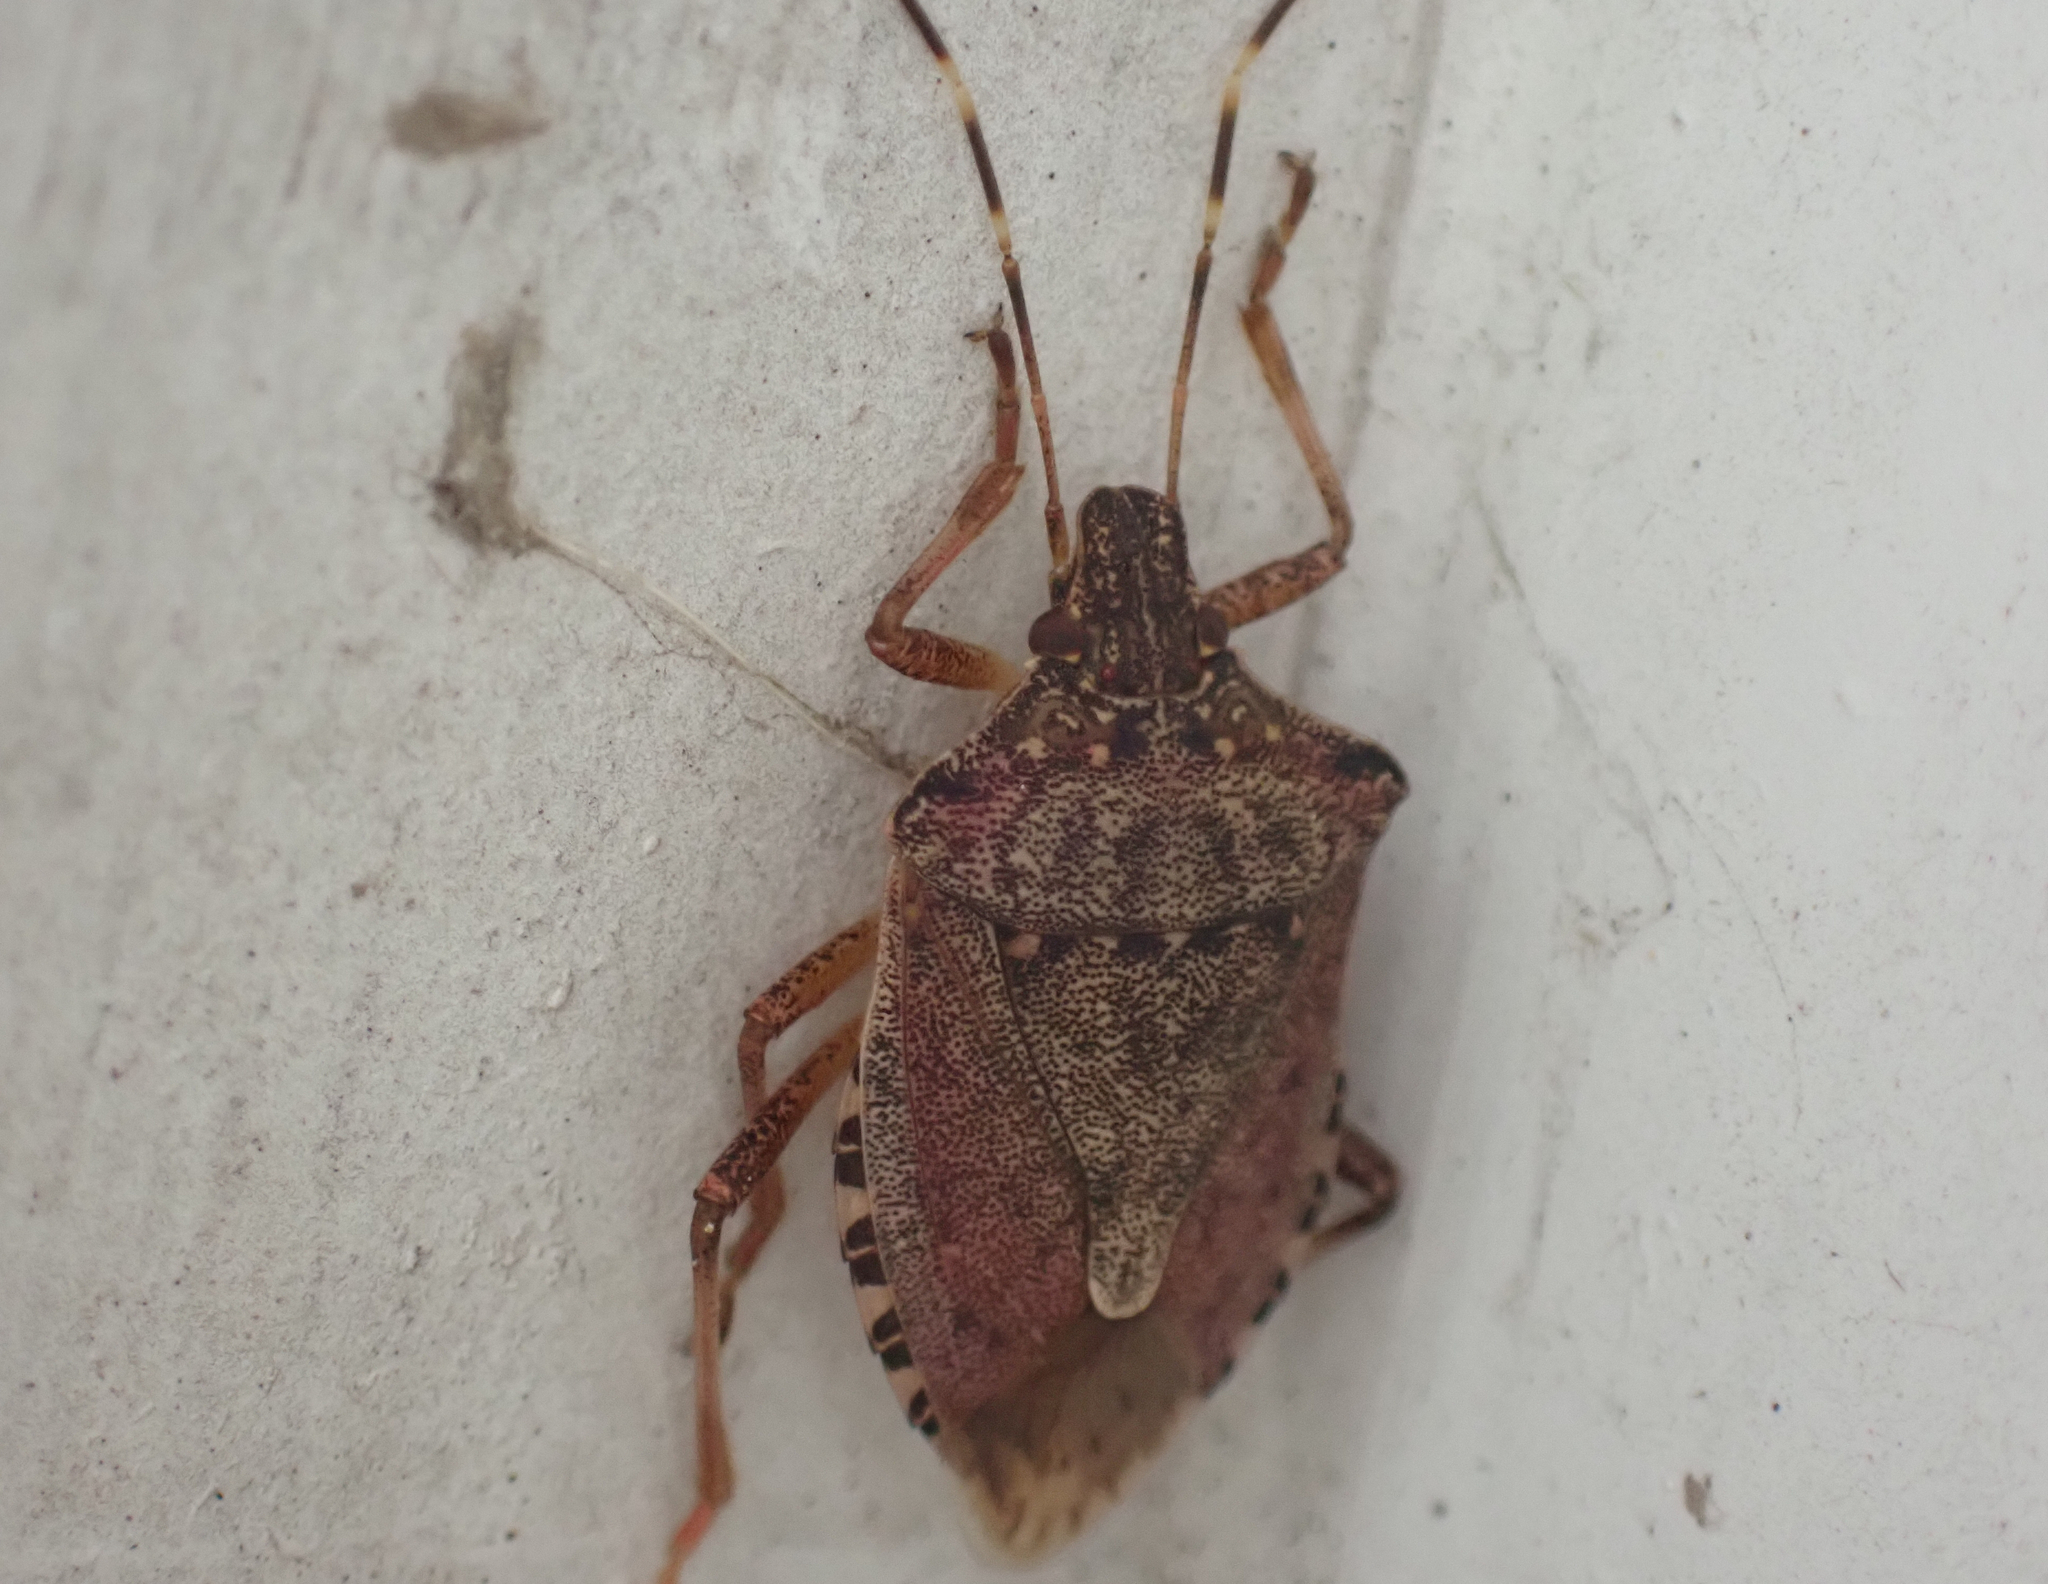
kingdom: Animalia
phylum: Arthropoda
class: Insecta
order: Hemiptera
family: Pentatomidae
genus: Halyomorpha
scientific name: Halyomorpha halys
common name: Brown marmorated stink bug
